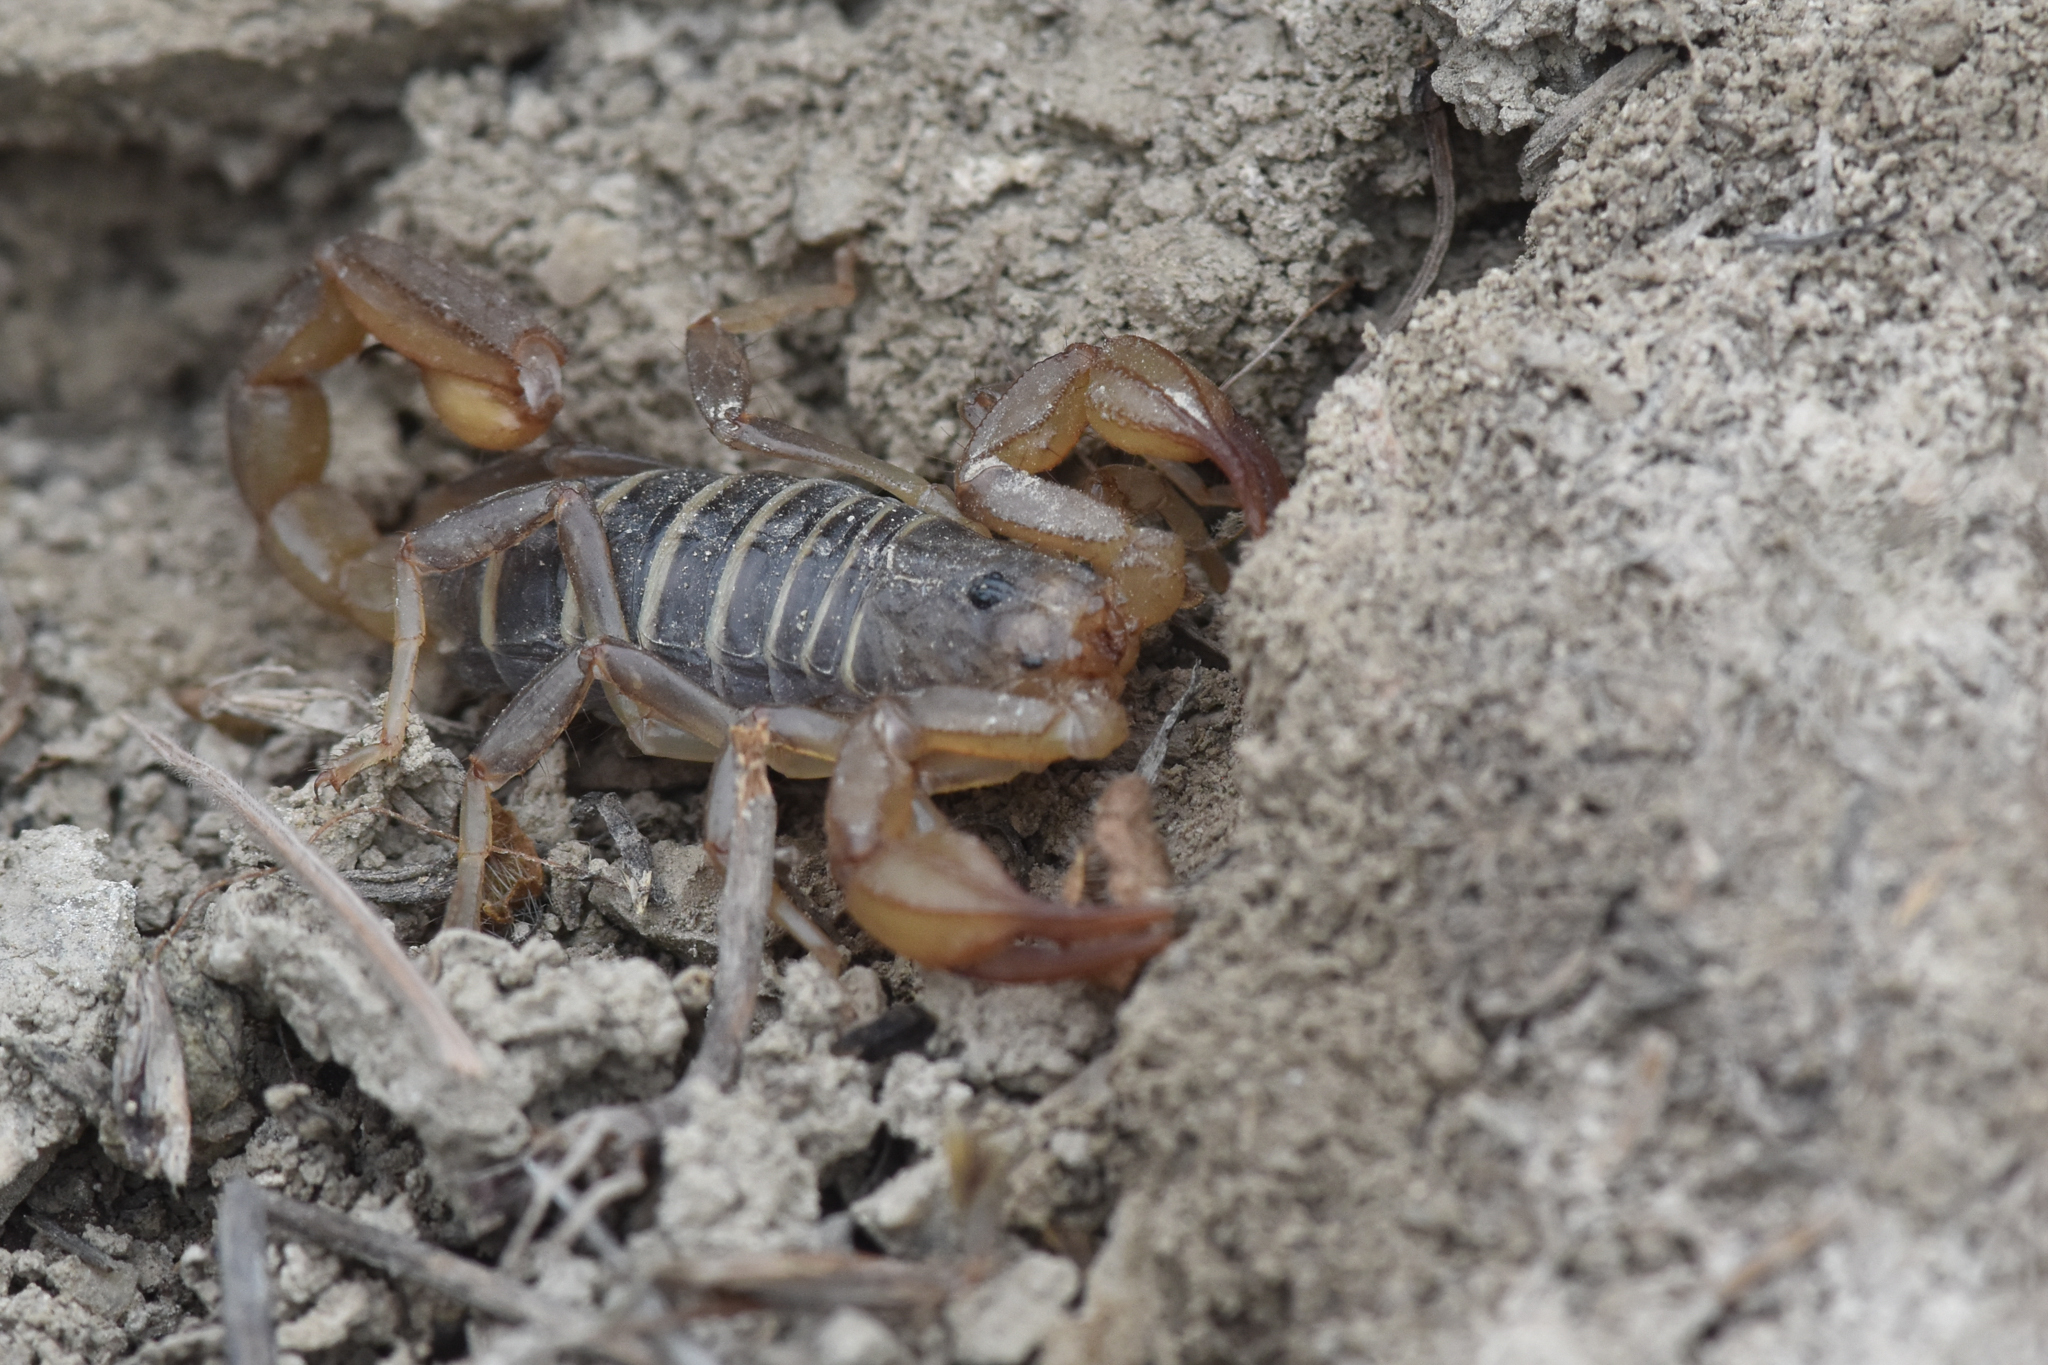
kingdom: Animalia
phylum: Arthropoda
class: Arachnida
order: Scorpiones
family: Vaejovidae
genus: Paruroctonus
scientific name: Paruroctonus boreus
